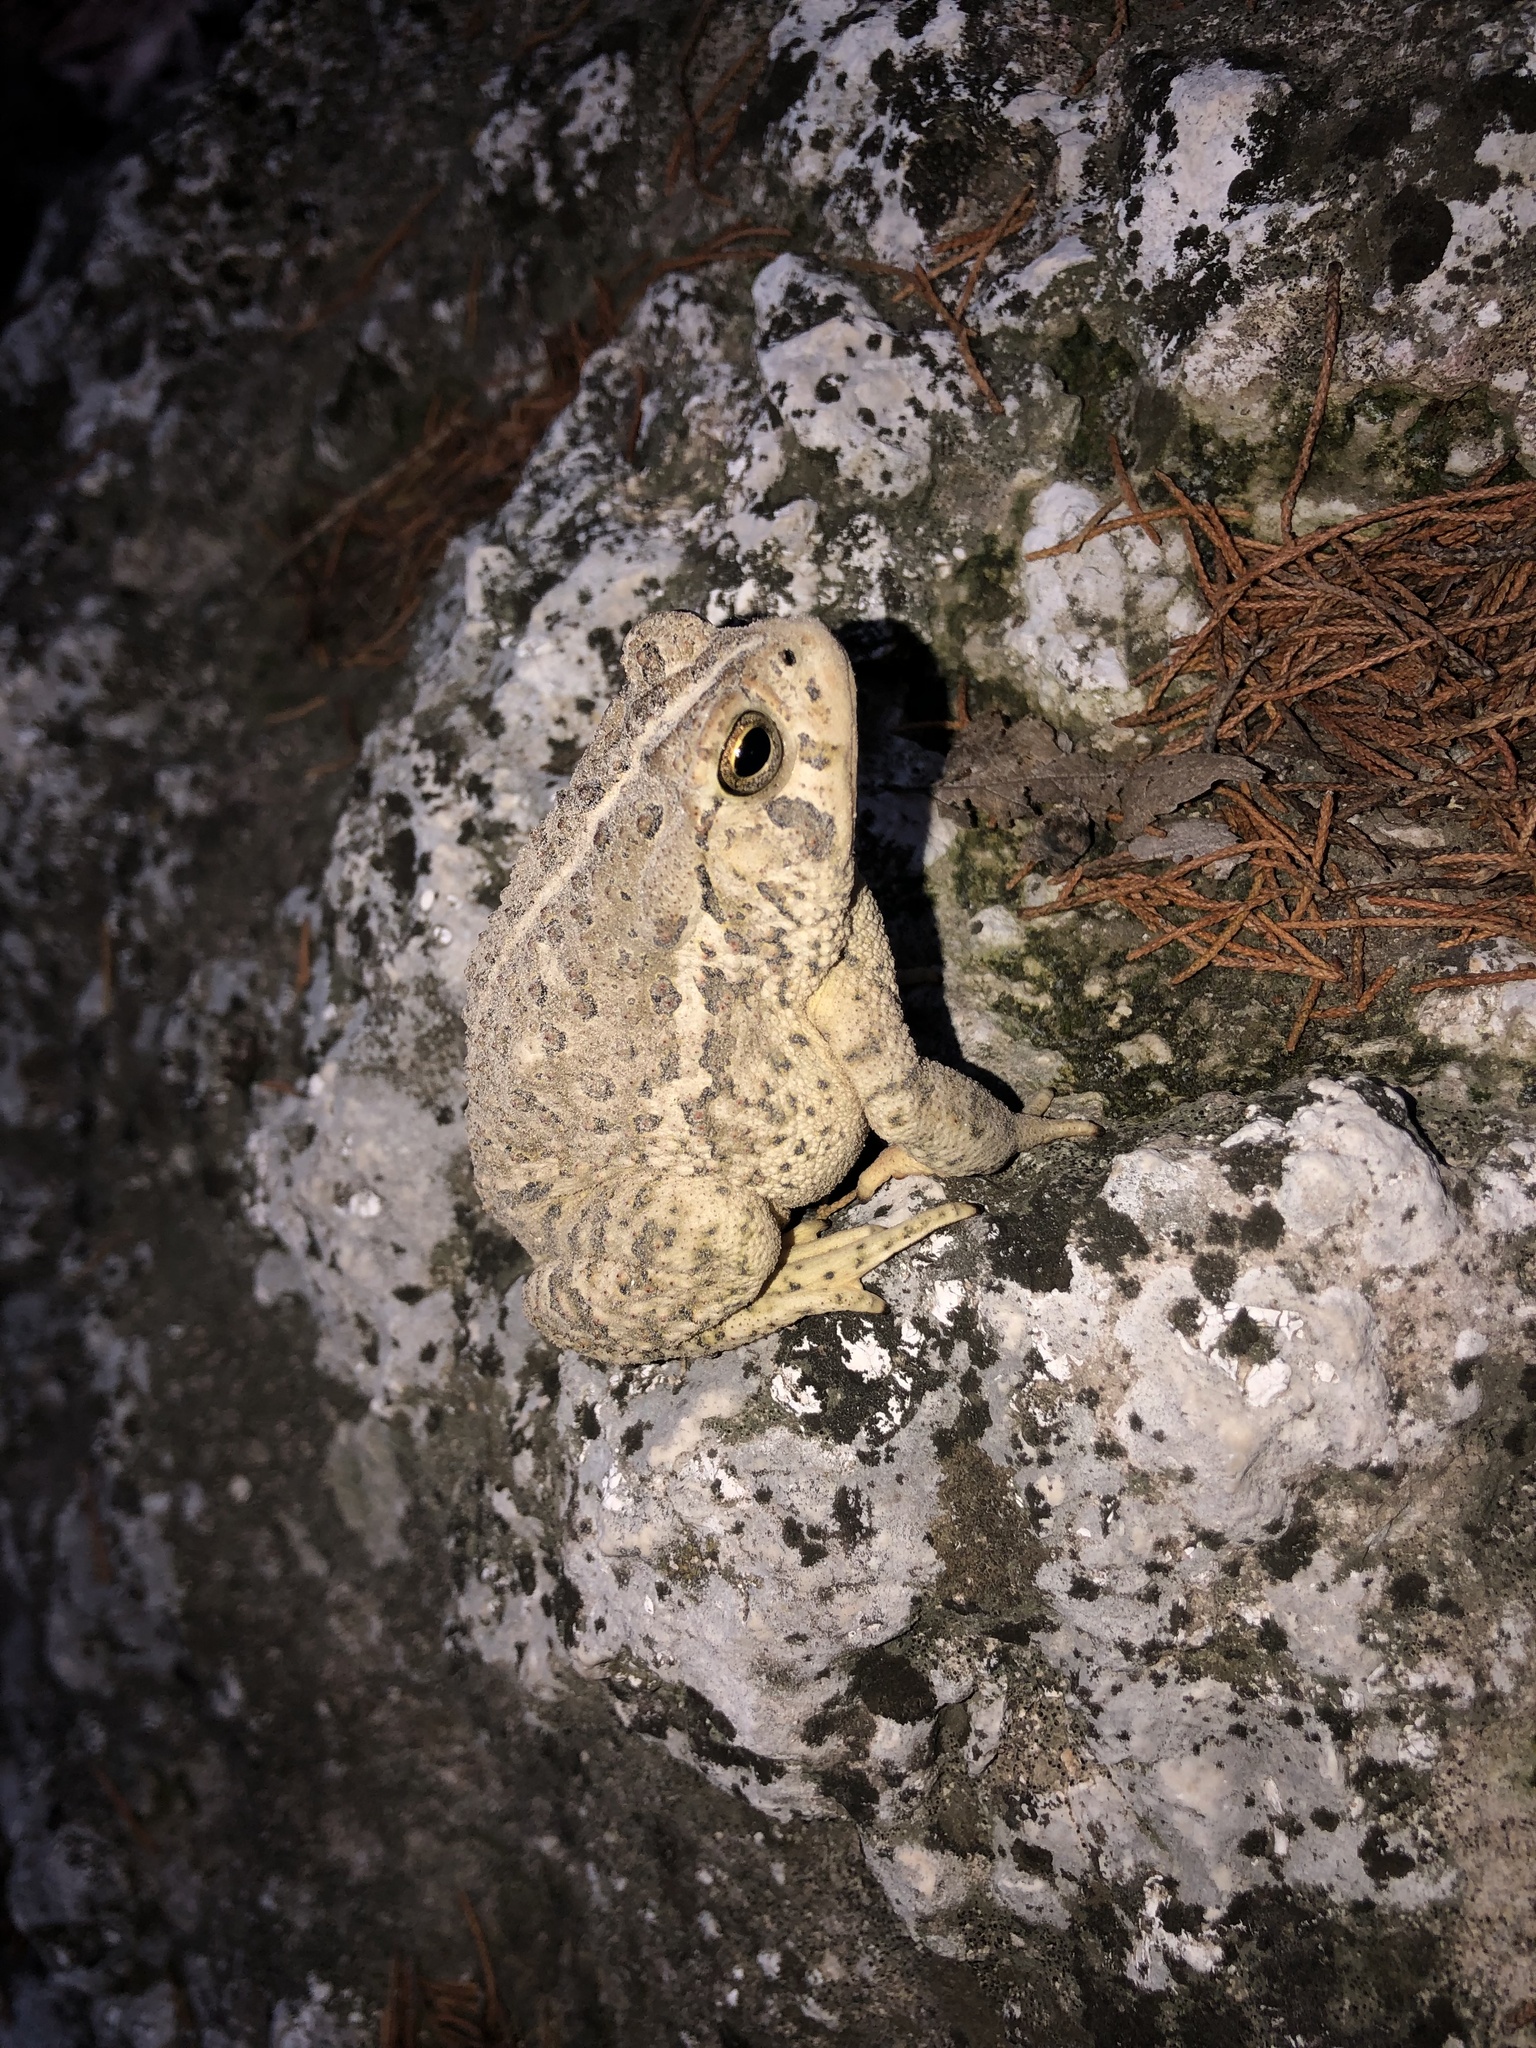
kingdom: Animalia
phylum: Chordata
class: Amphibia
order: Anura
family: Bufonidae
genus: Anaxyrus
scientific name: Anaxyrus woodhousii
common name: Woodhouse's toad
